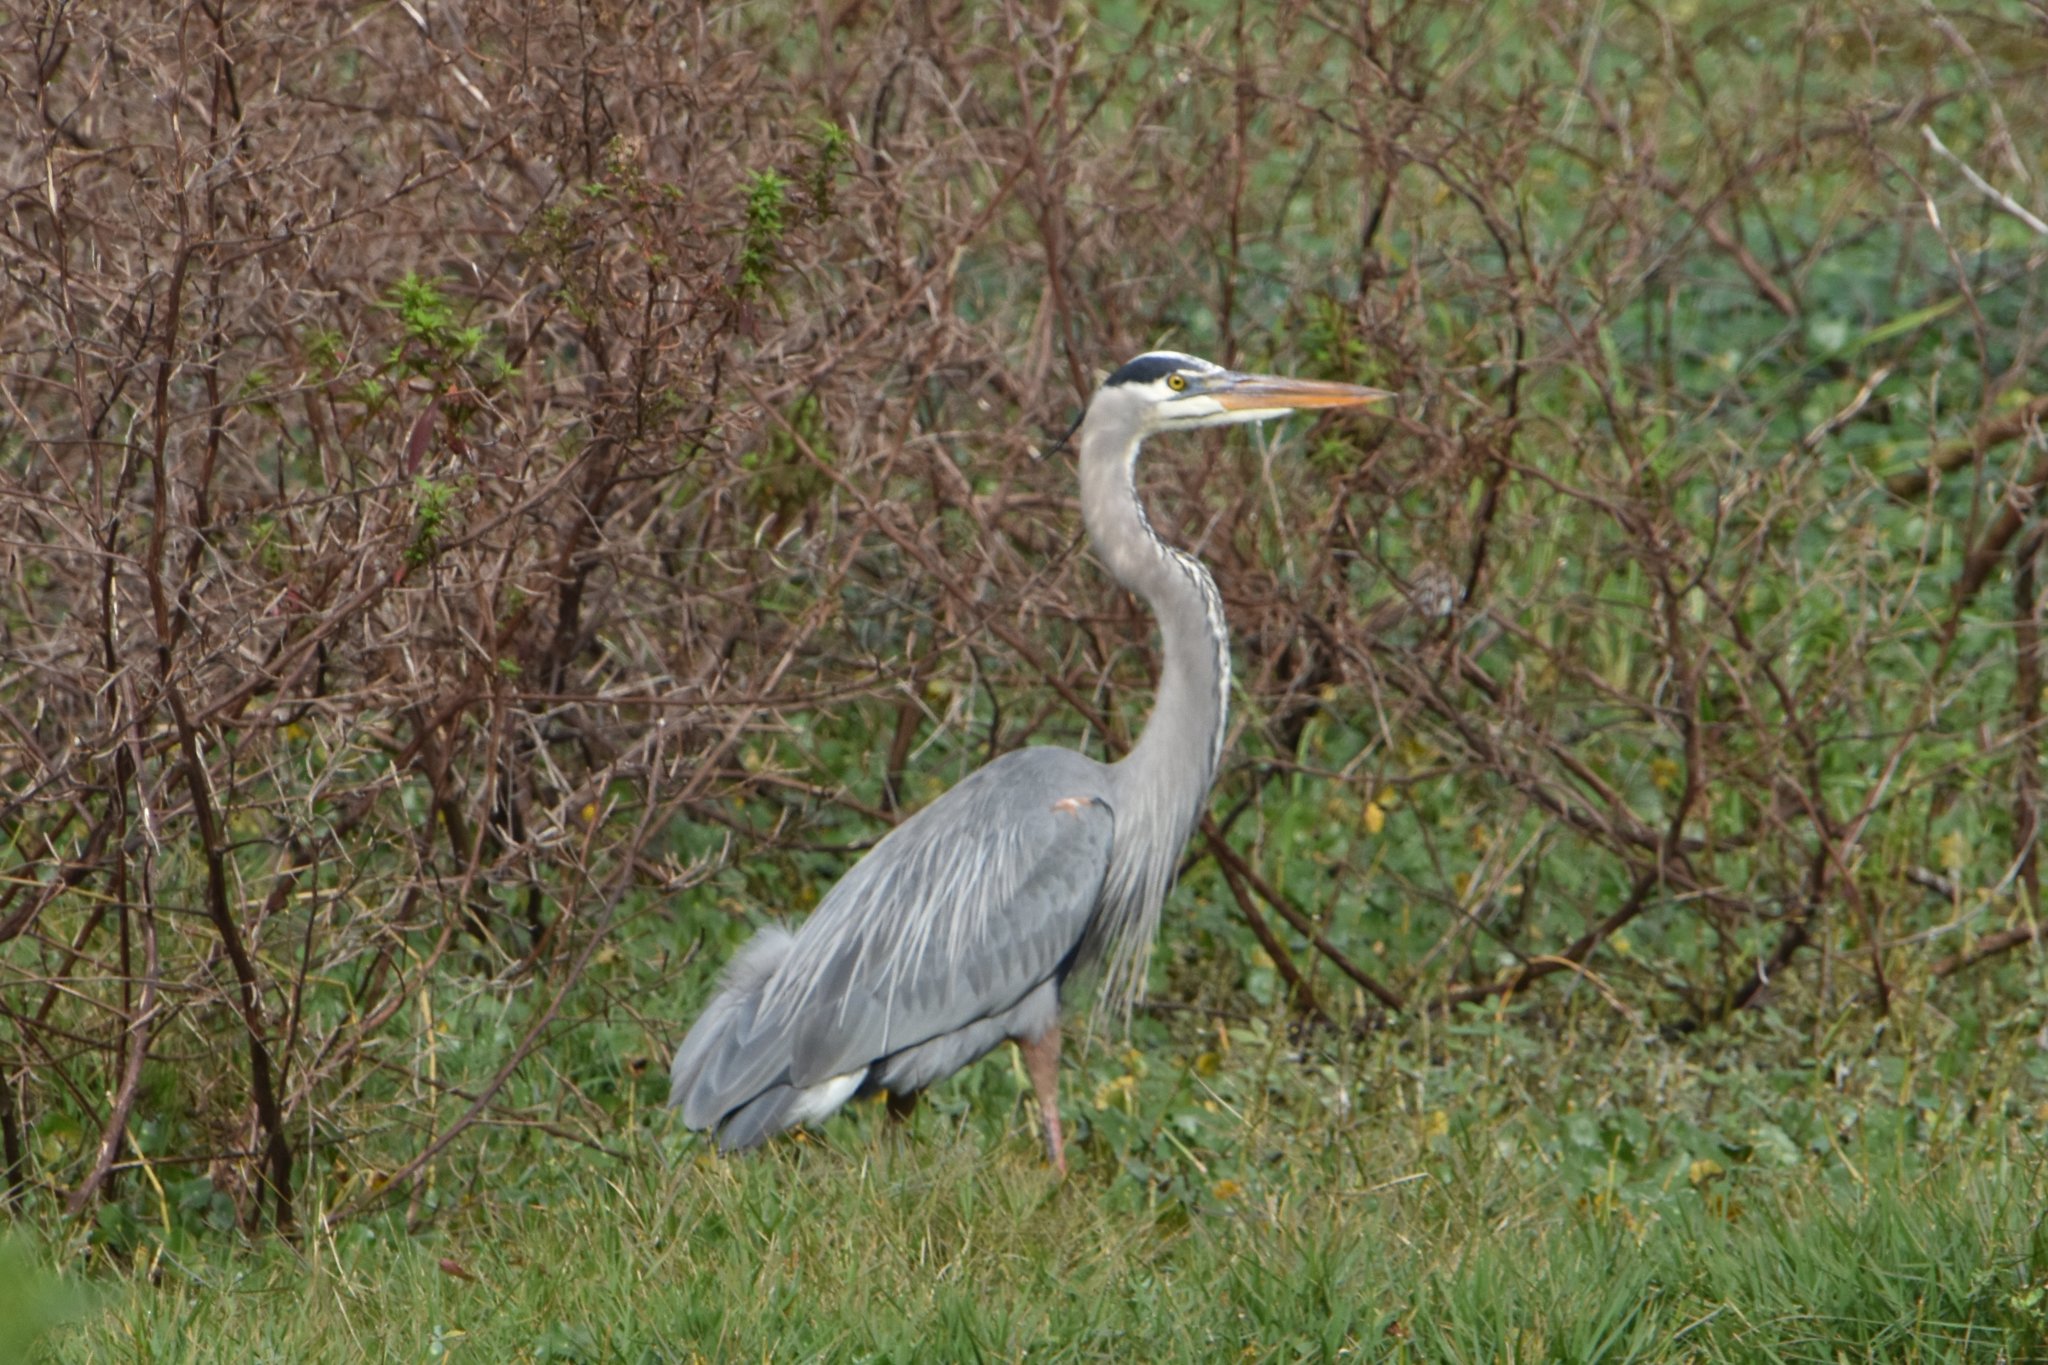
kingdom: Animalia
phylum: Chordata
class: Aves
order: Pelecaniformes
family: Ardeidae
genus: Ardea
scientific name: Ardea herodias
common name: Great blue heron
